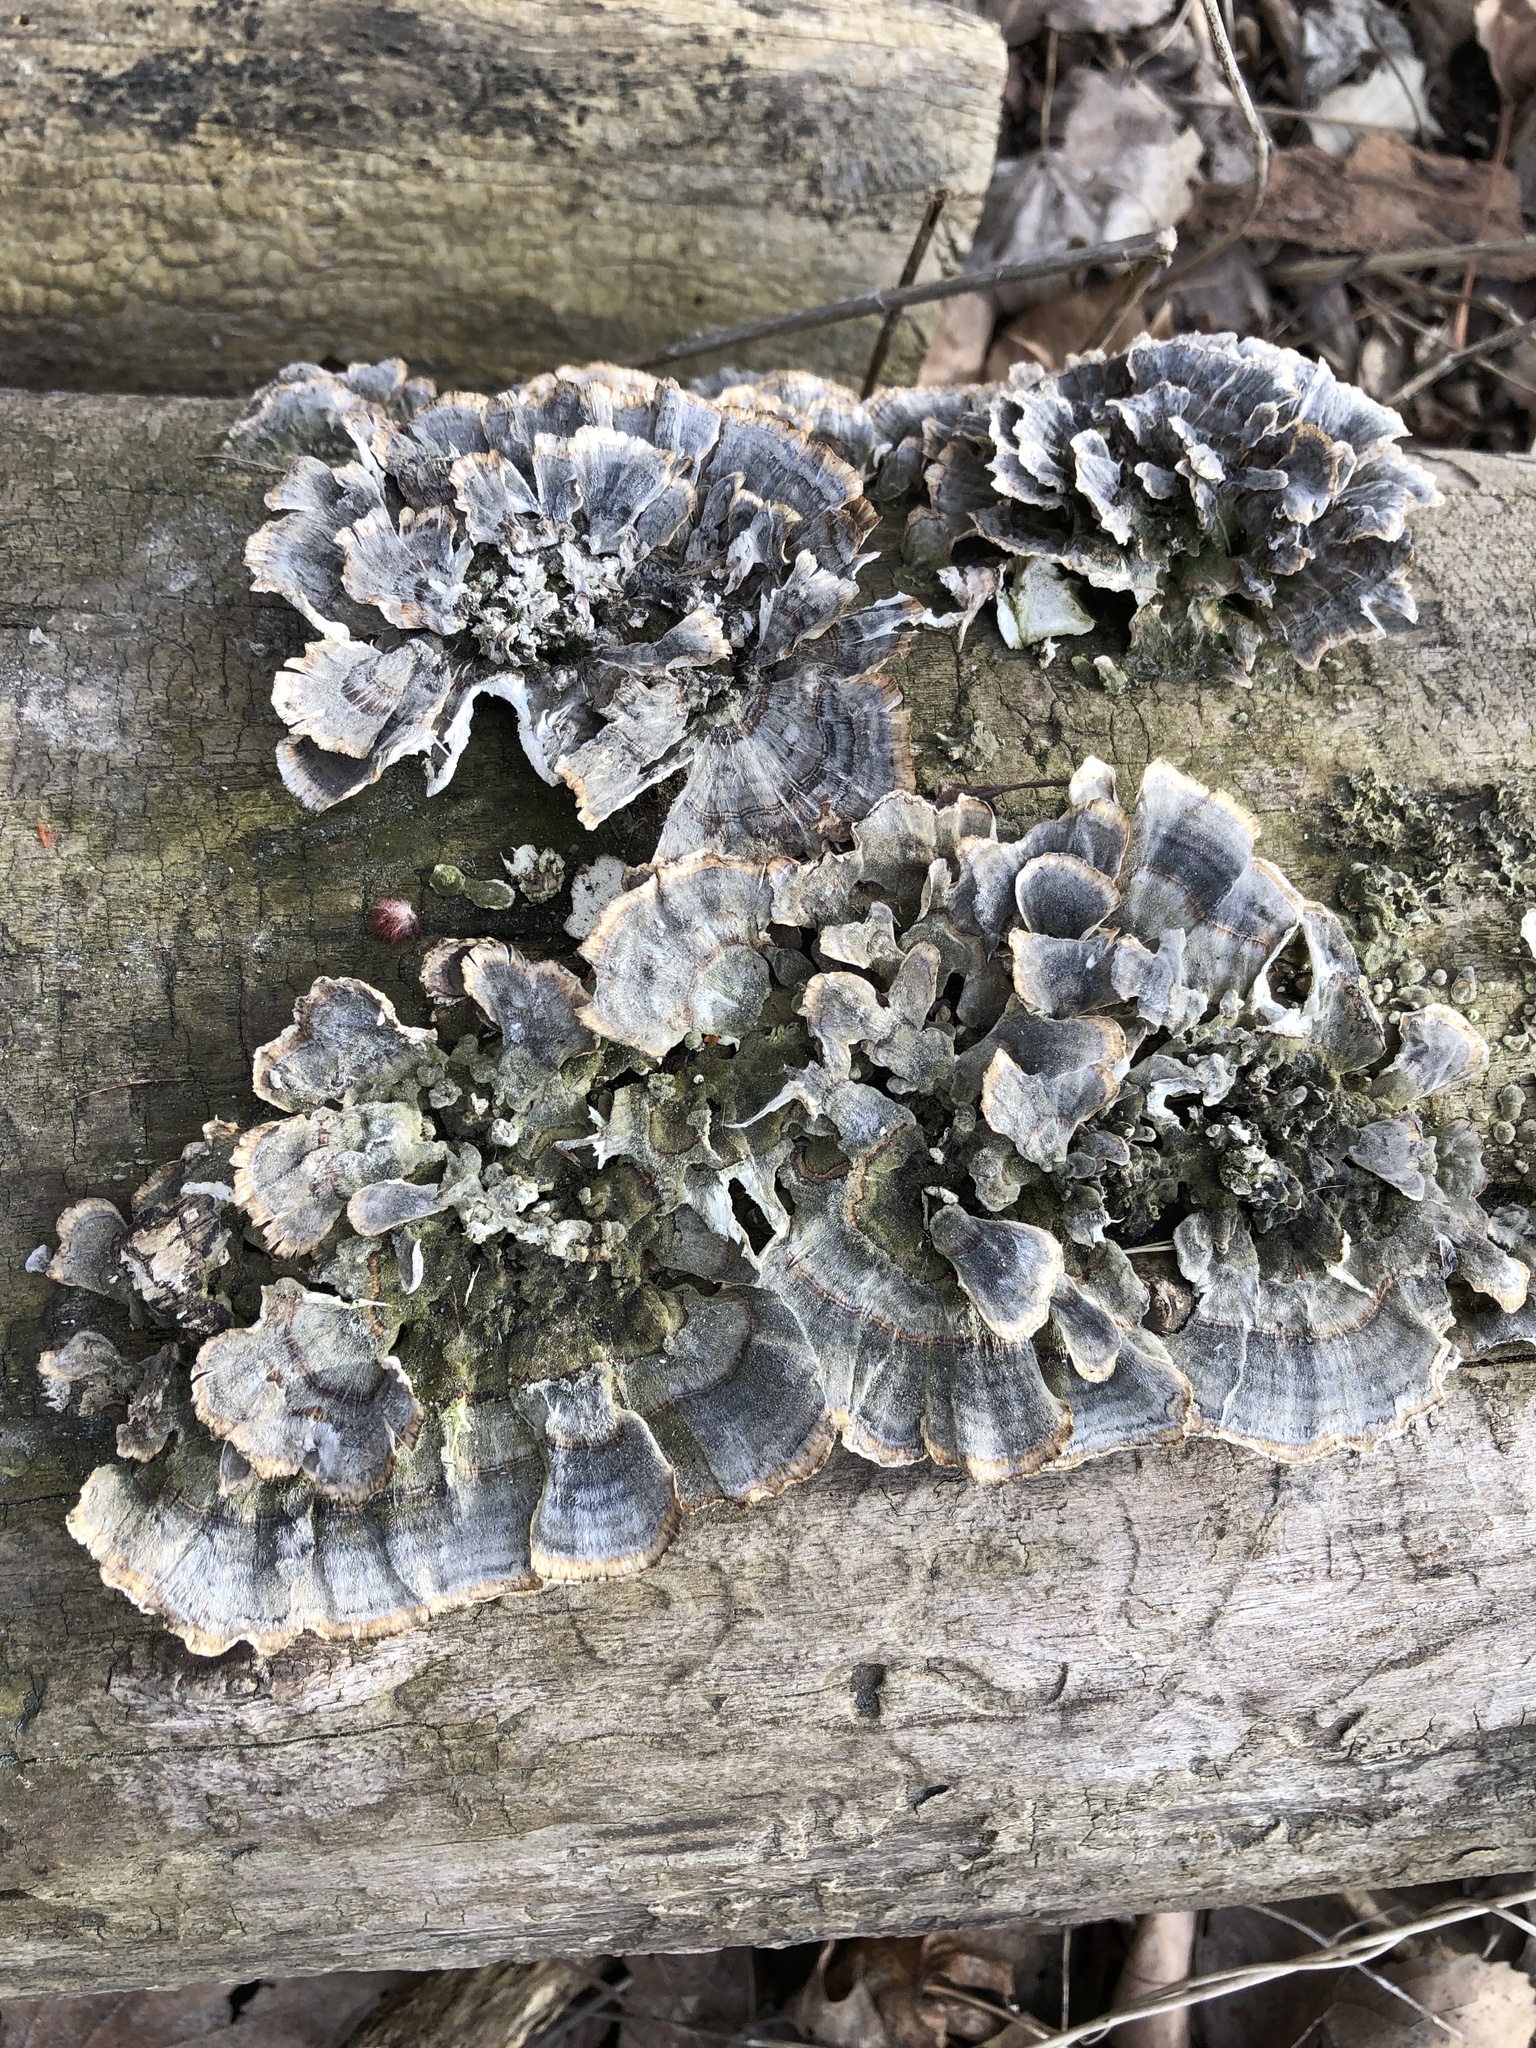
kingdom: Fungi
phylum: Basidiomycota
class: Agaricomycetes
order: Polyporales
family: Polyporaceae
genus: Trametes
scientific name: Trametes versicolor
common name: Turkeytail
